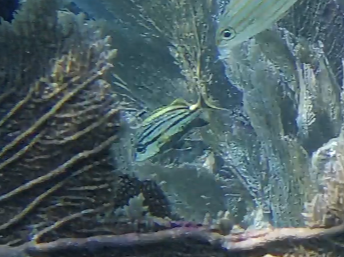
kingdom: Animalia
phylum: Chordata
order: Perciformes
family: Haemulidae
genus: Haemulon
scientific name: Haemulon macrostomum
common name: Spanish grunt
